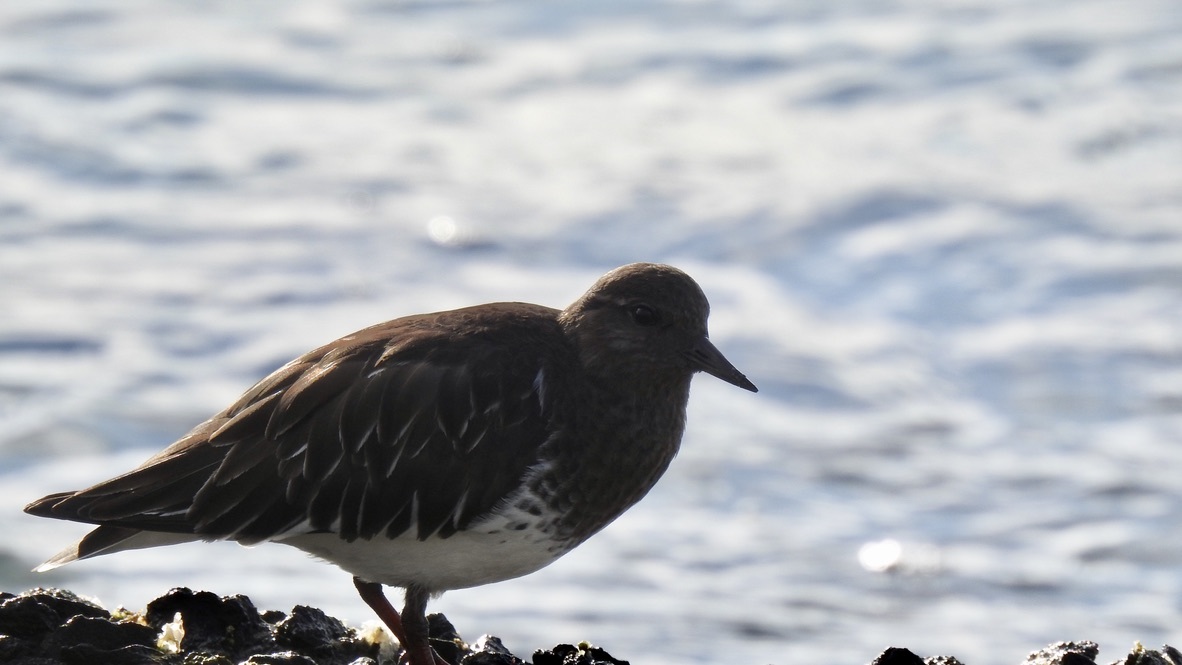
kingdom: Animalia
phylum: Chordata
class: Aves
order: Charadriiformes
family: Scolopacidae
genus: Calidris
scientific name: Calidris virgata
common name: Surfbird
